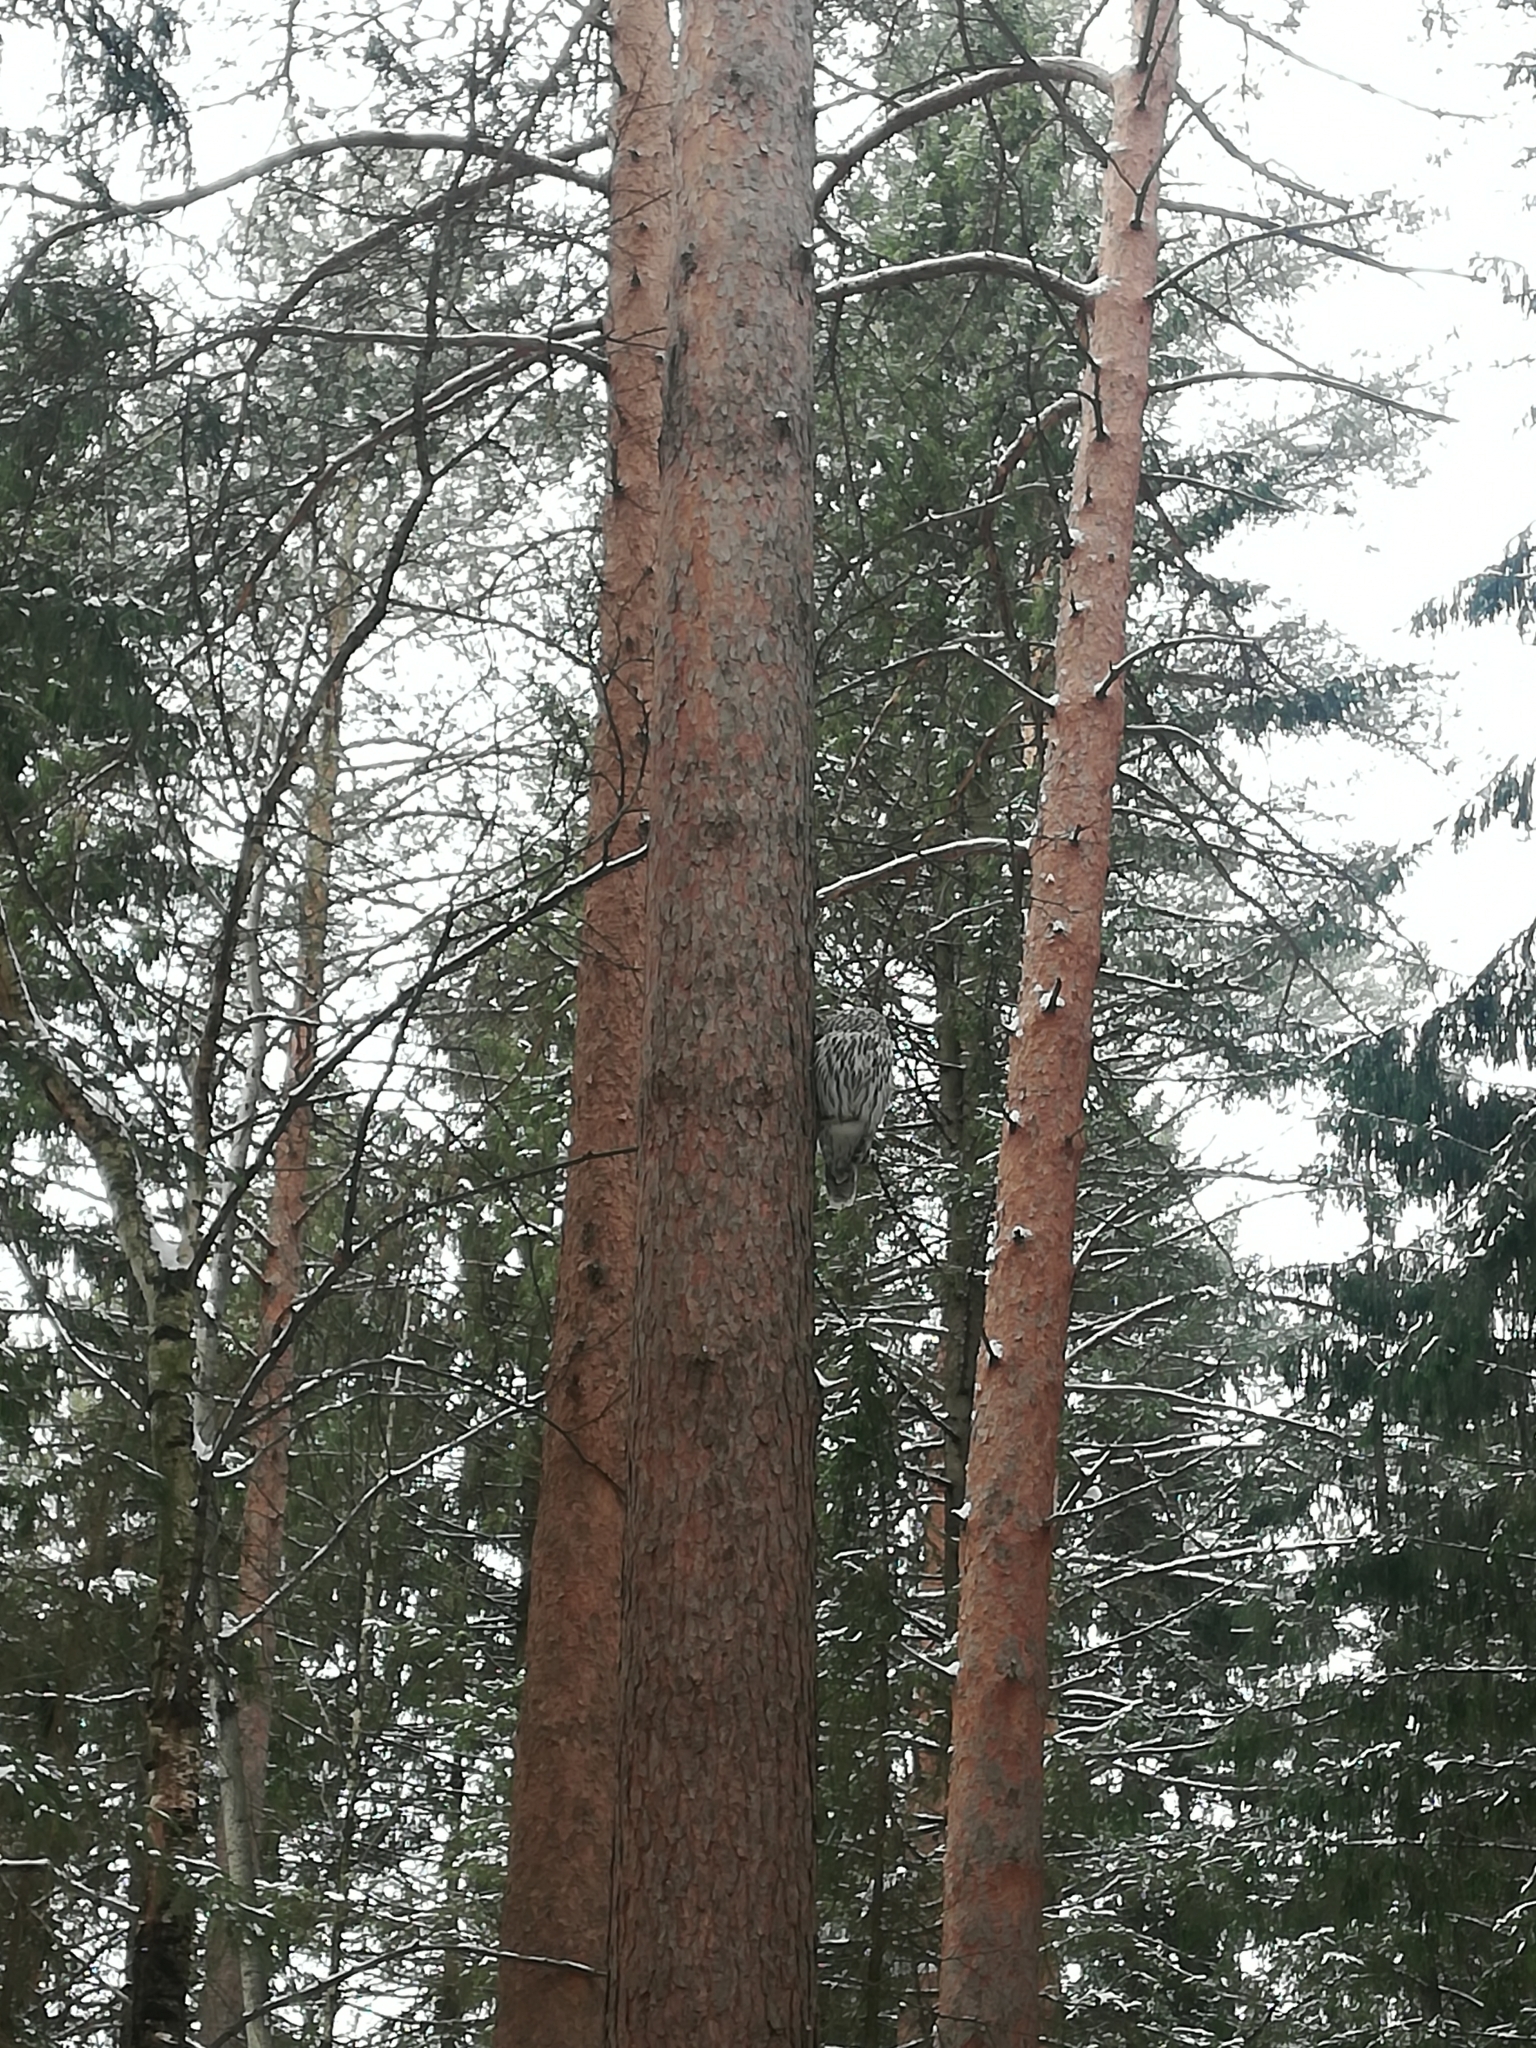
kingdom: Animalia
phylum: Chordata
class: Aves
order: Strigiformes
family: Strigidae
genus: Strix
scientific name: Strix uralensis
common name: Ural owl
